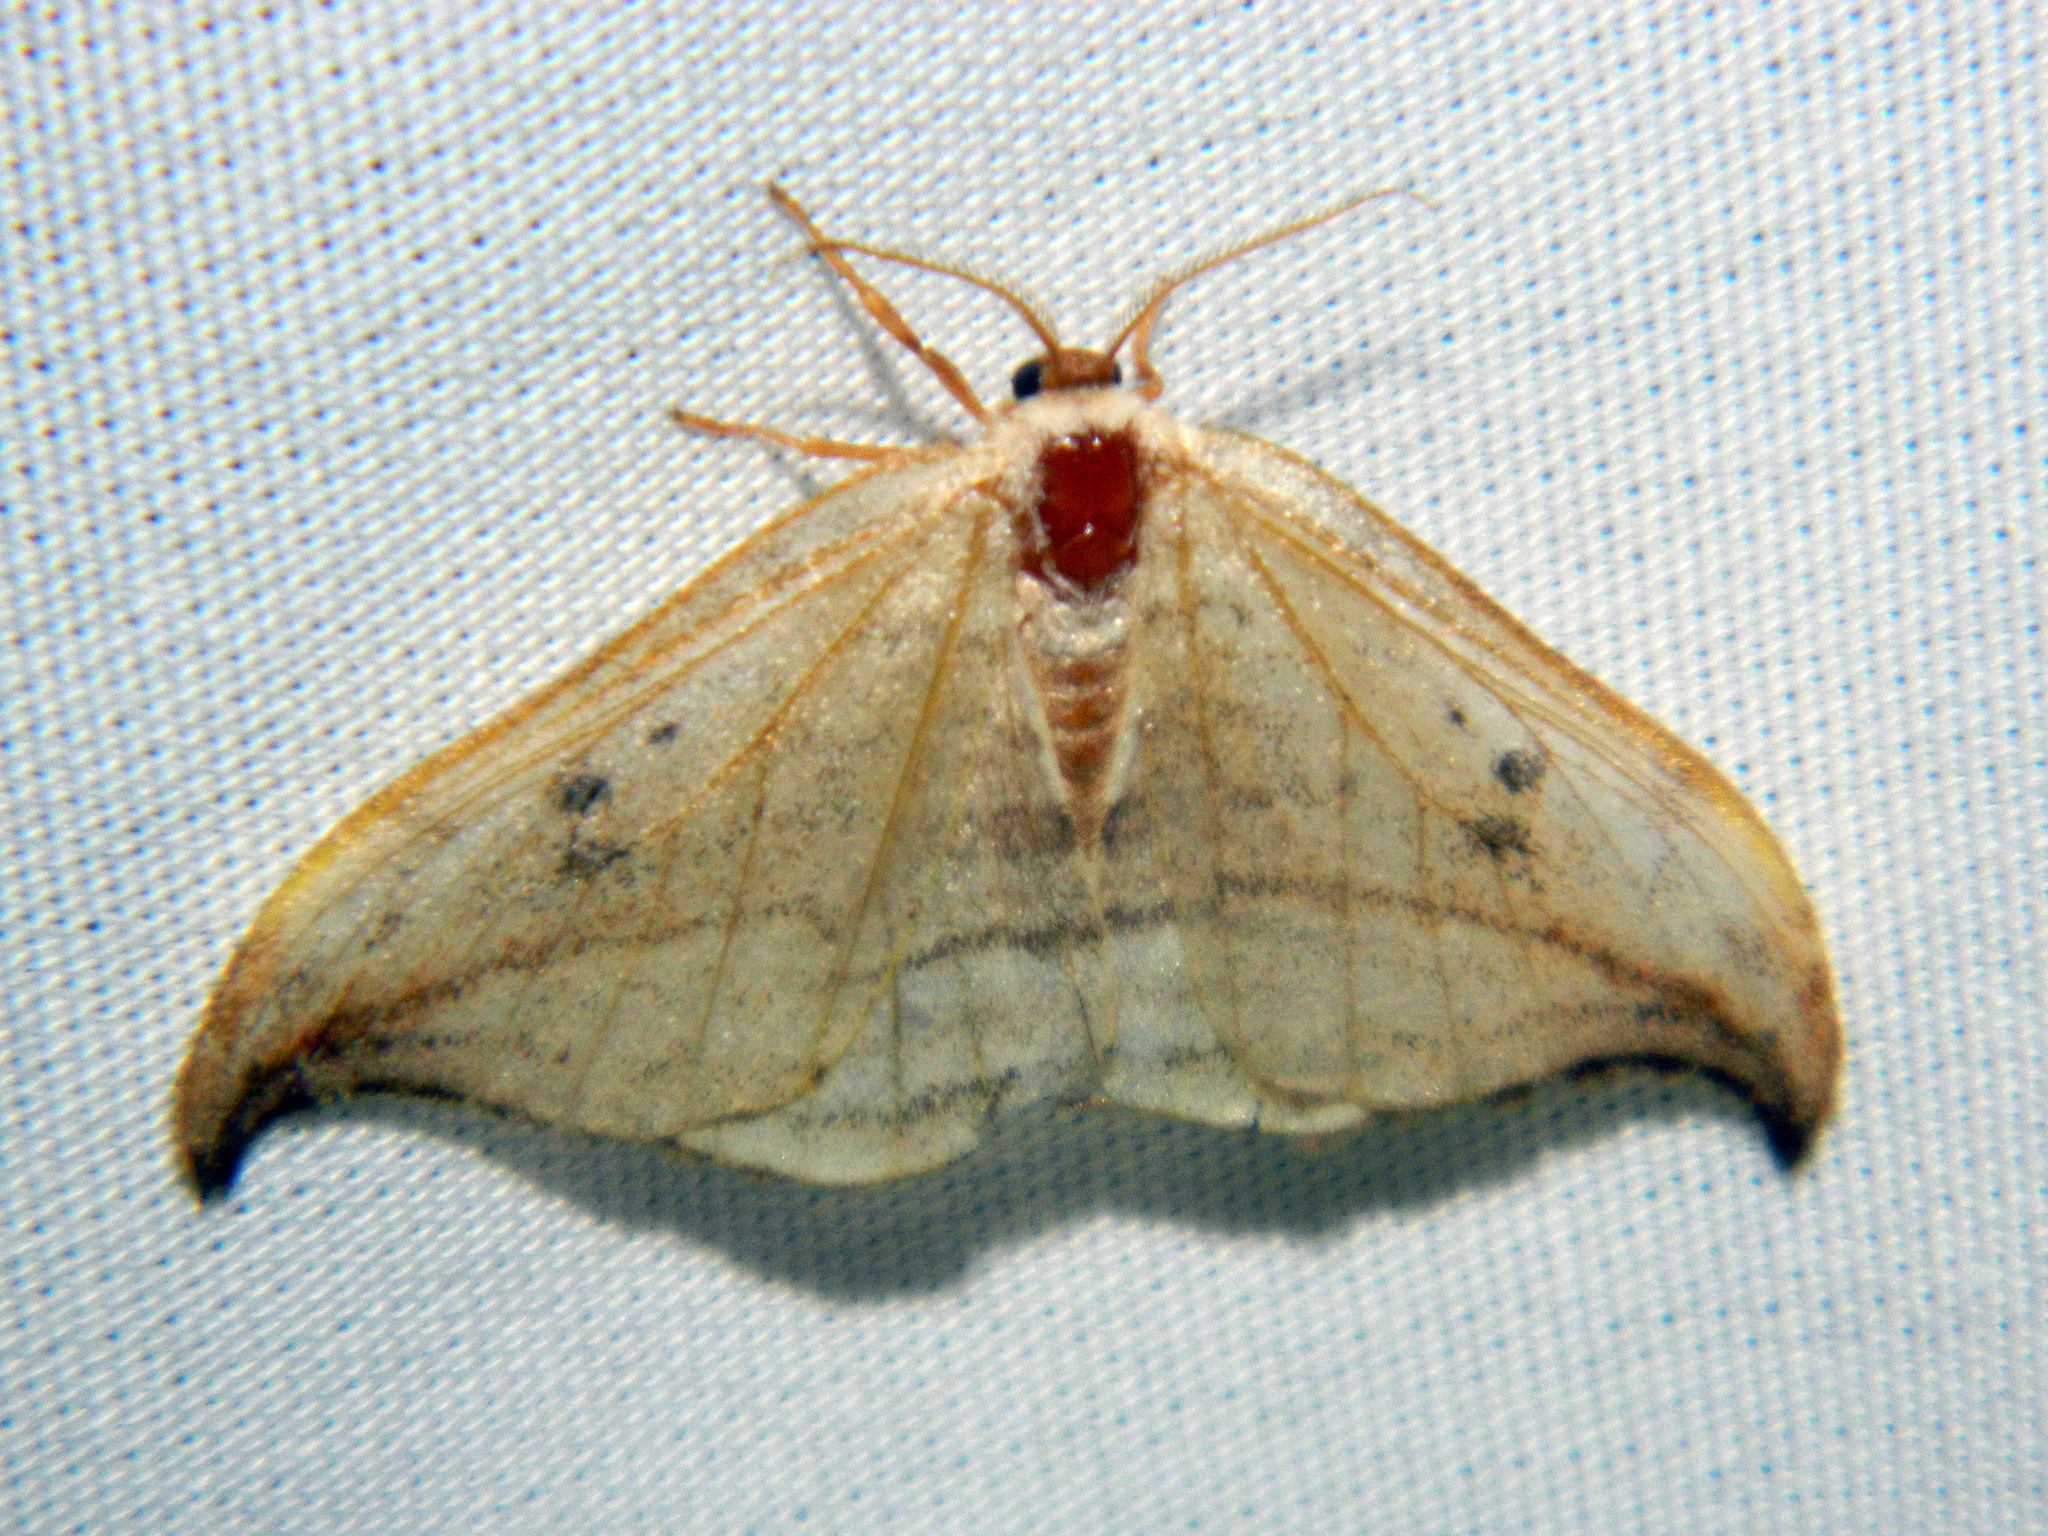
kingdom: Animalia
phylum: Arthropoda
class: Insecta
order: Lepidoptera
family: Drepanidae
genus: Drepana
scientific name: Drepana arcuata
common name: Arched hooktip moth
